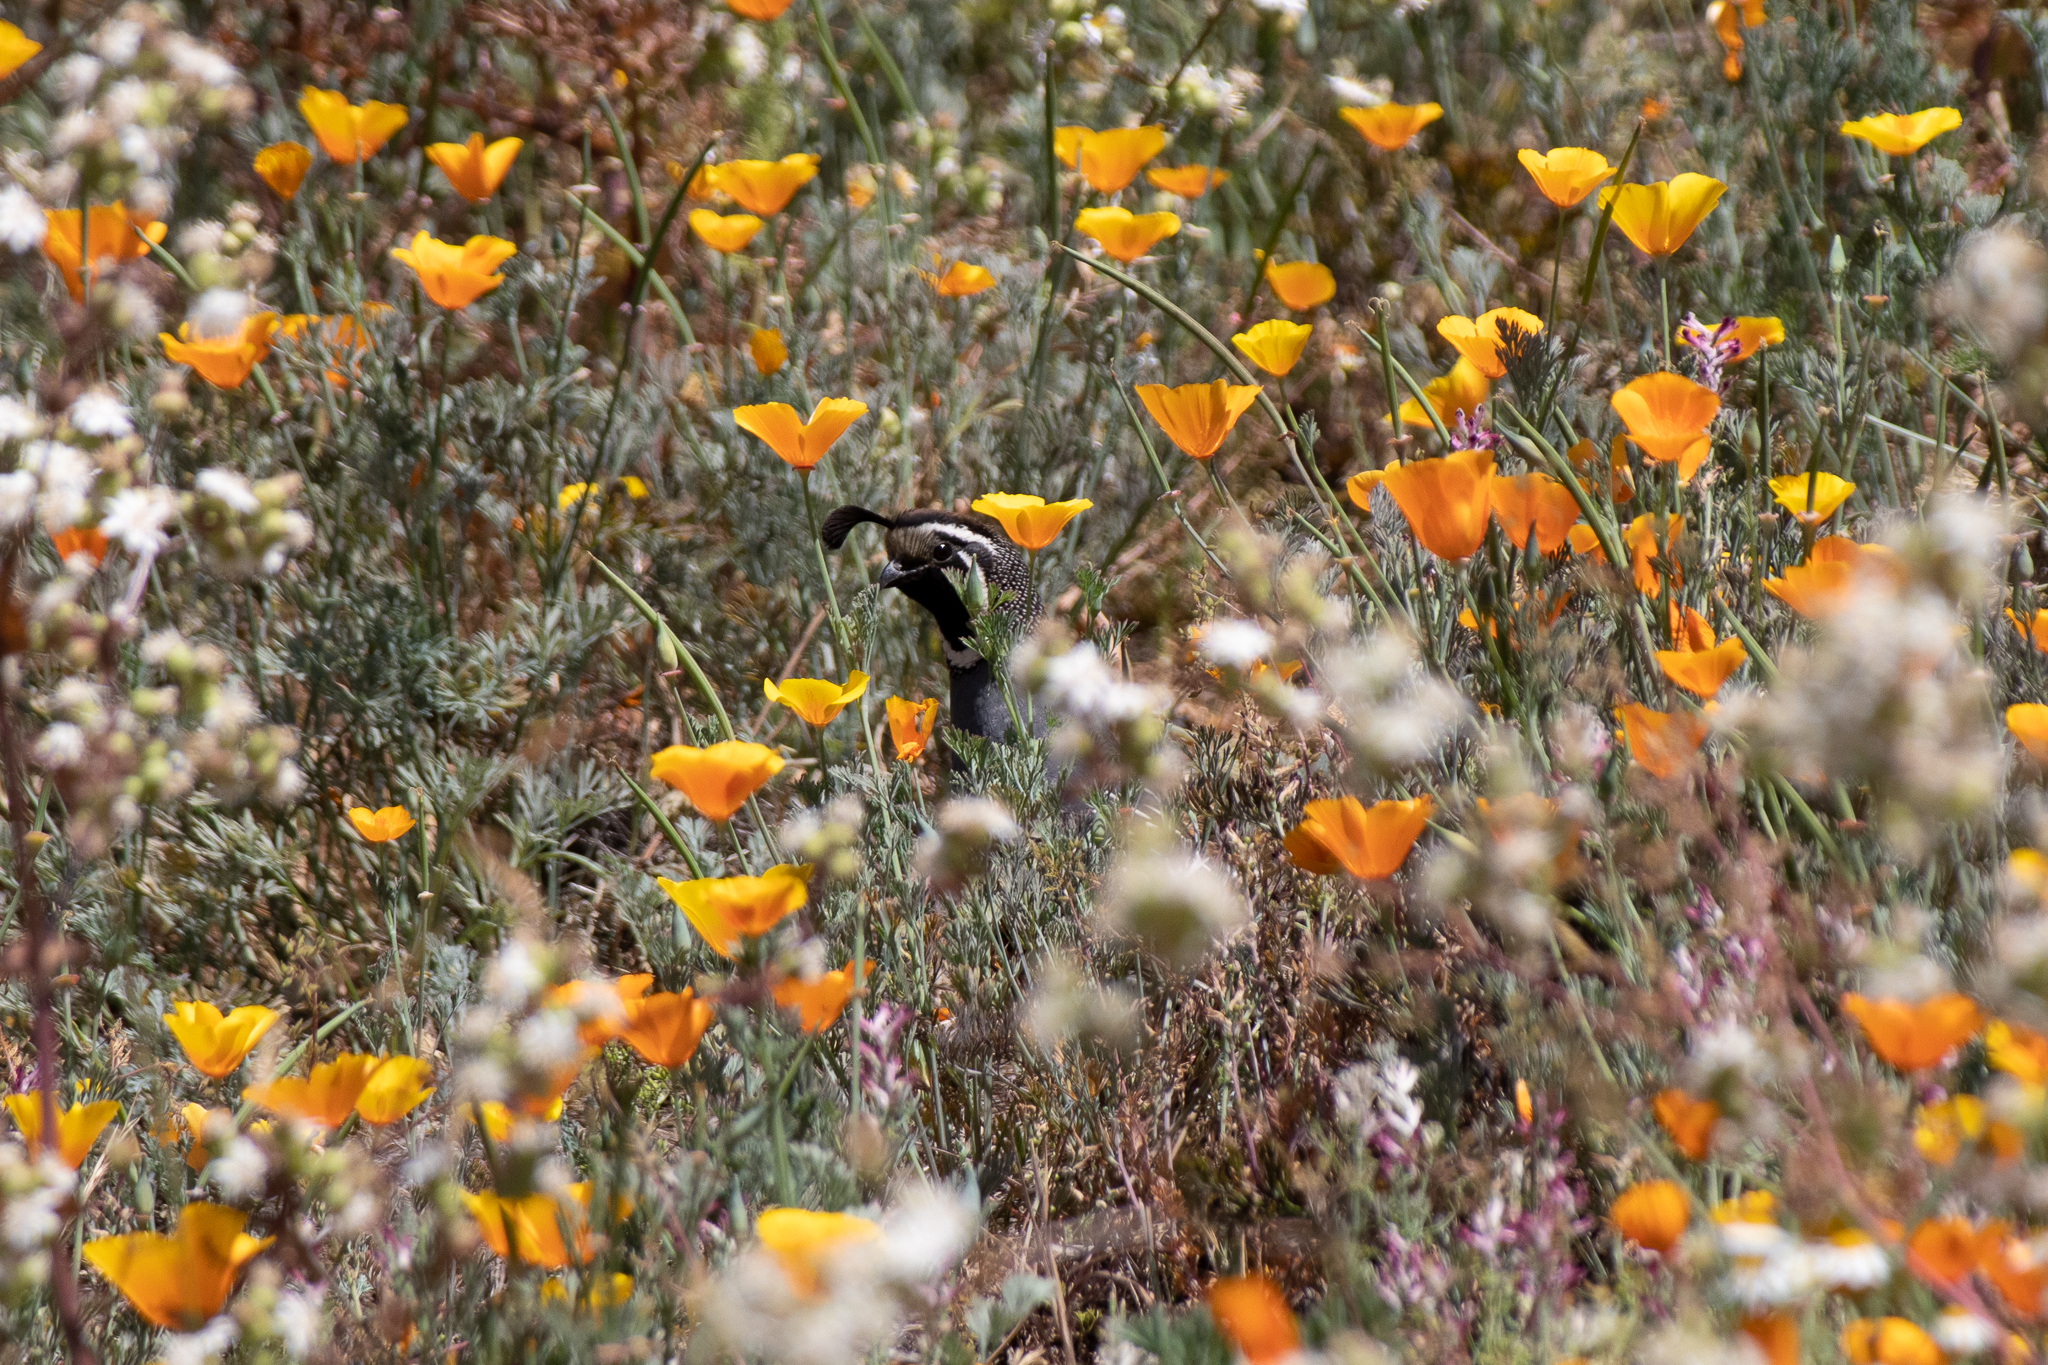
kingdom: Animalia
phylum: Chordata
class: Aves
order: Galliformes
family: Odontophoridae
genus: Callipepla
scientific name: Callipepla californica
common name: California quail
